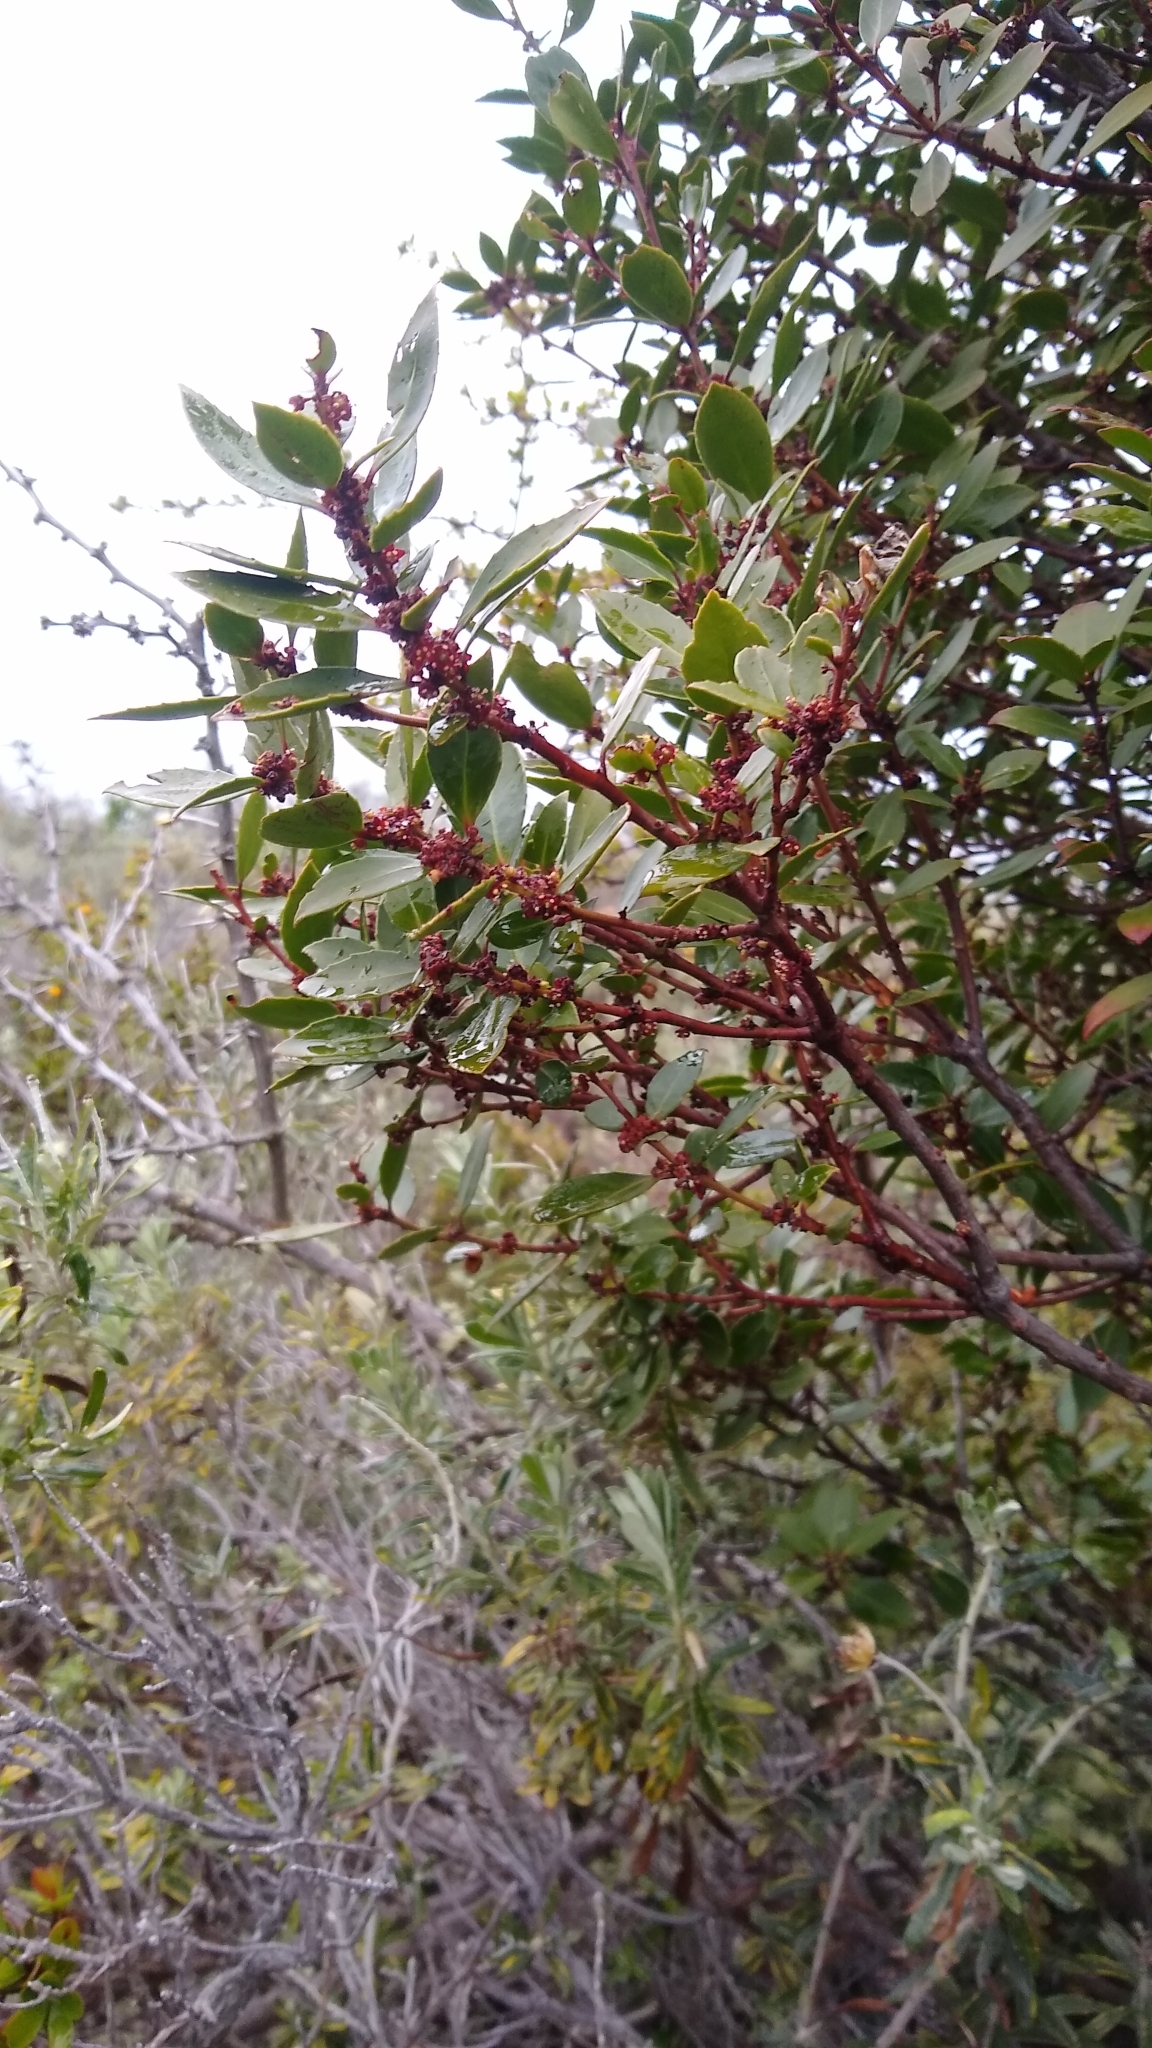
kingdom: Plantae
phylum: Tracheophyta
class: Magnoliopsida
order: Celastrales
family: Celastraceae
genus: Maytenus
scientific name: Maytenus magellanica
